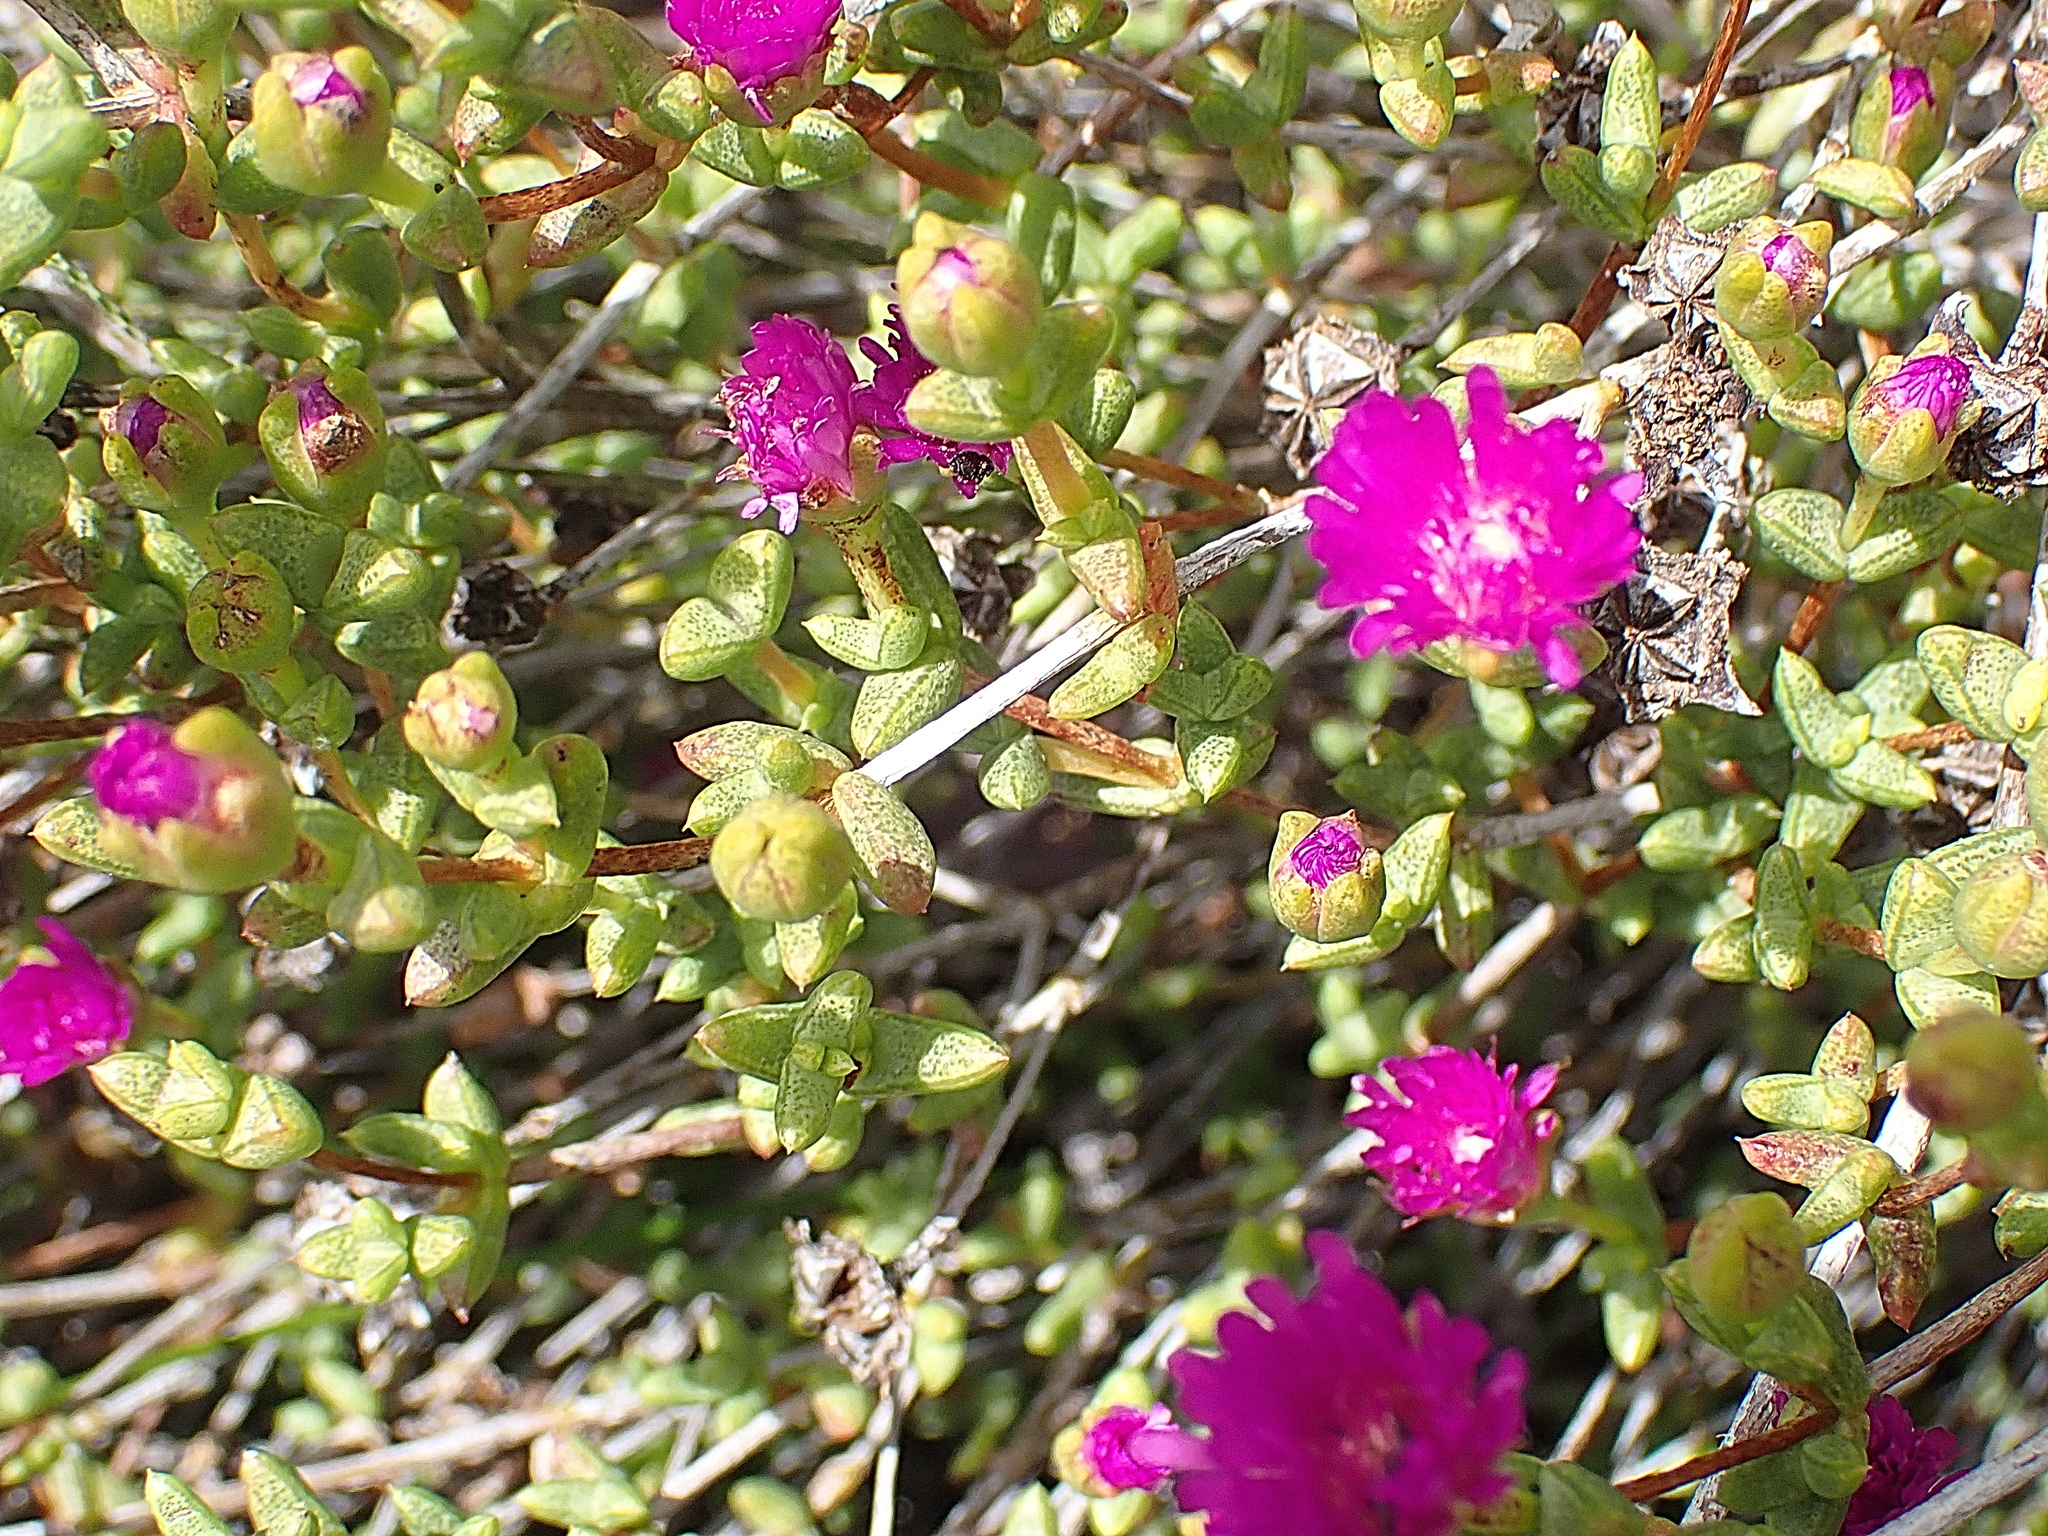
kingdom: Plantae
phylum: Tracheophyta
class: Magnoliopsida
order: Caryophyllales
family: Aizoaceae
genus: Ruschia
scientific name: Ruschia virgata
